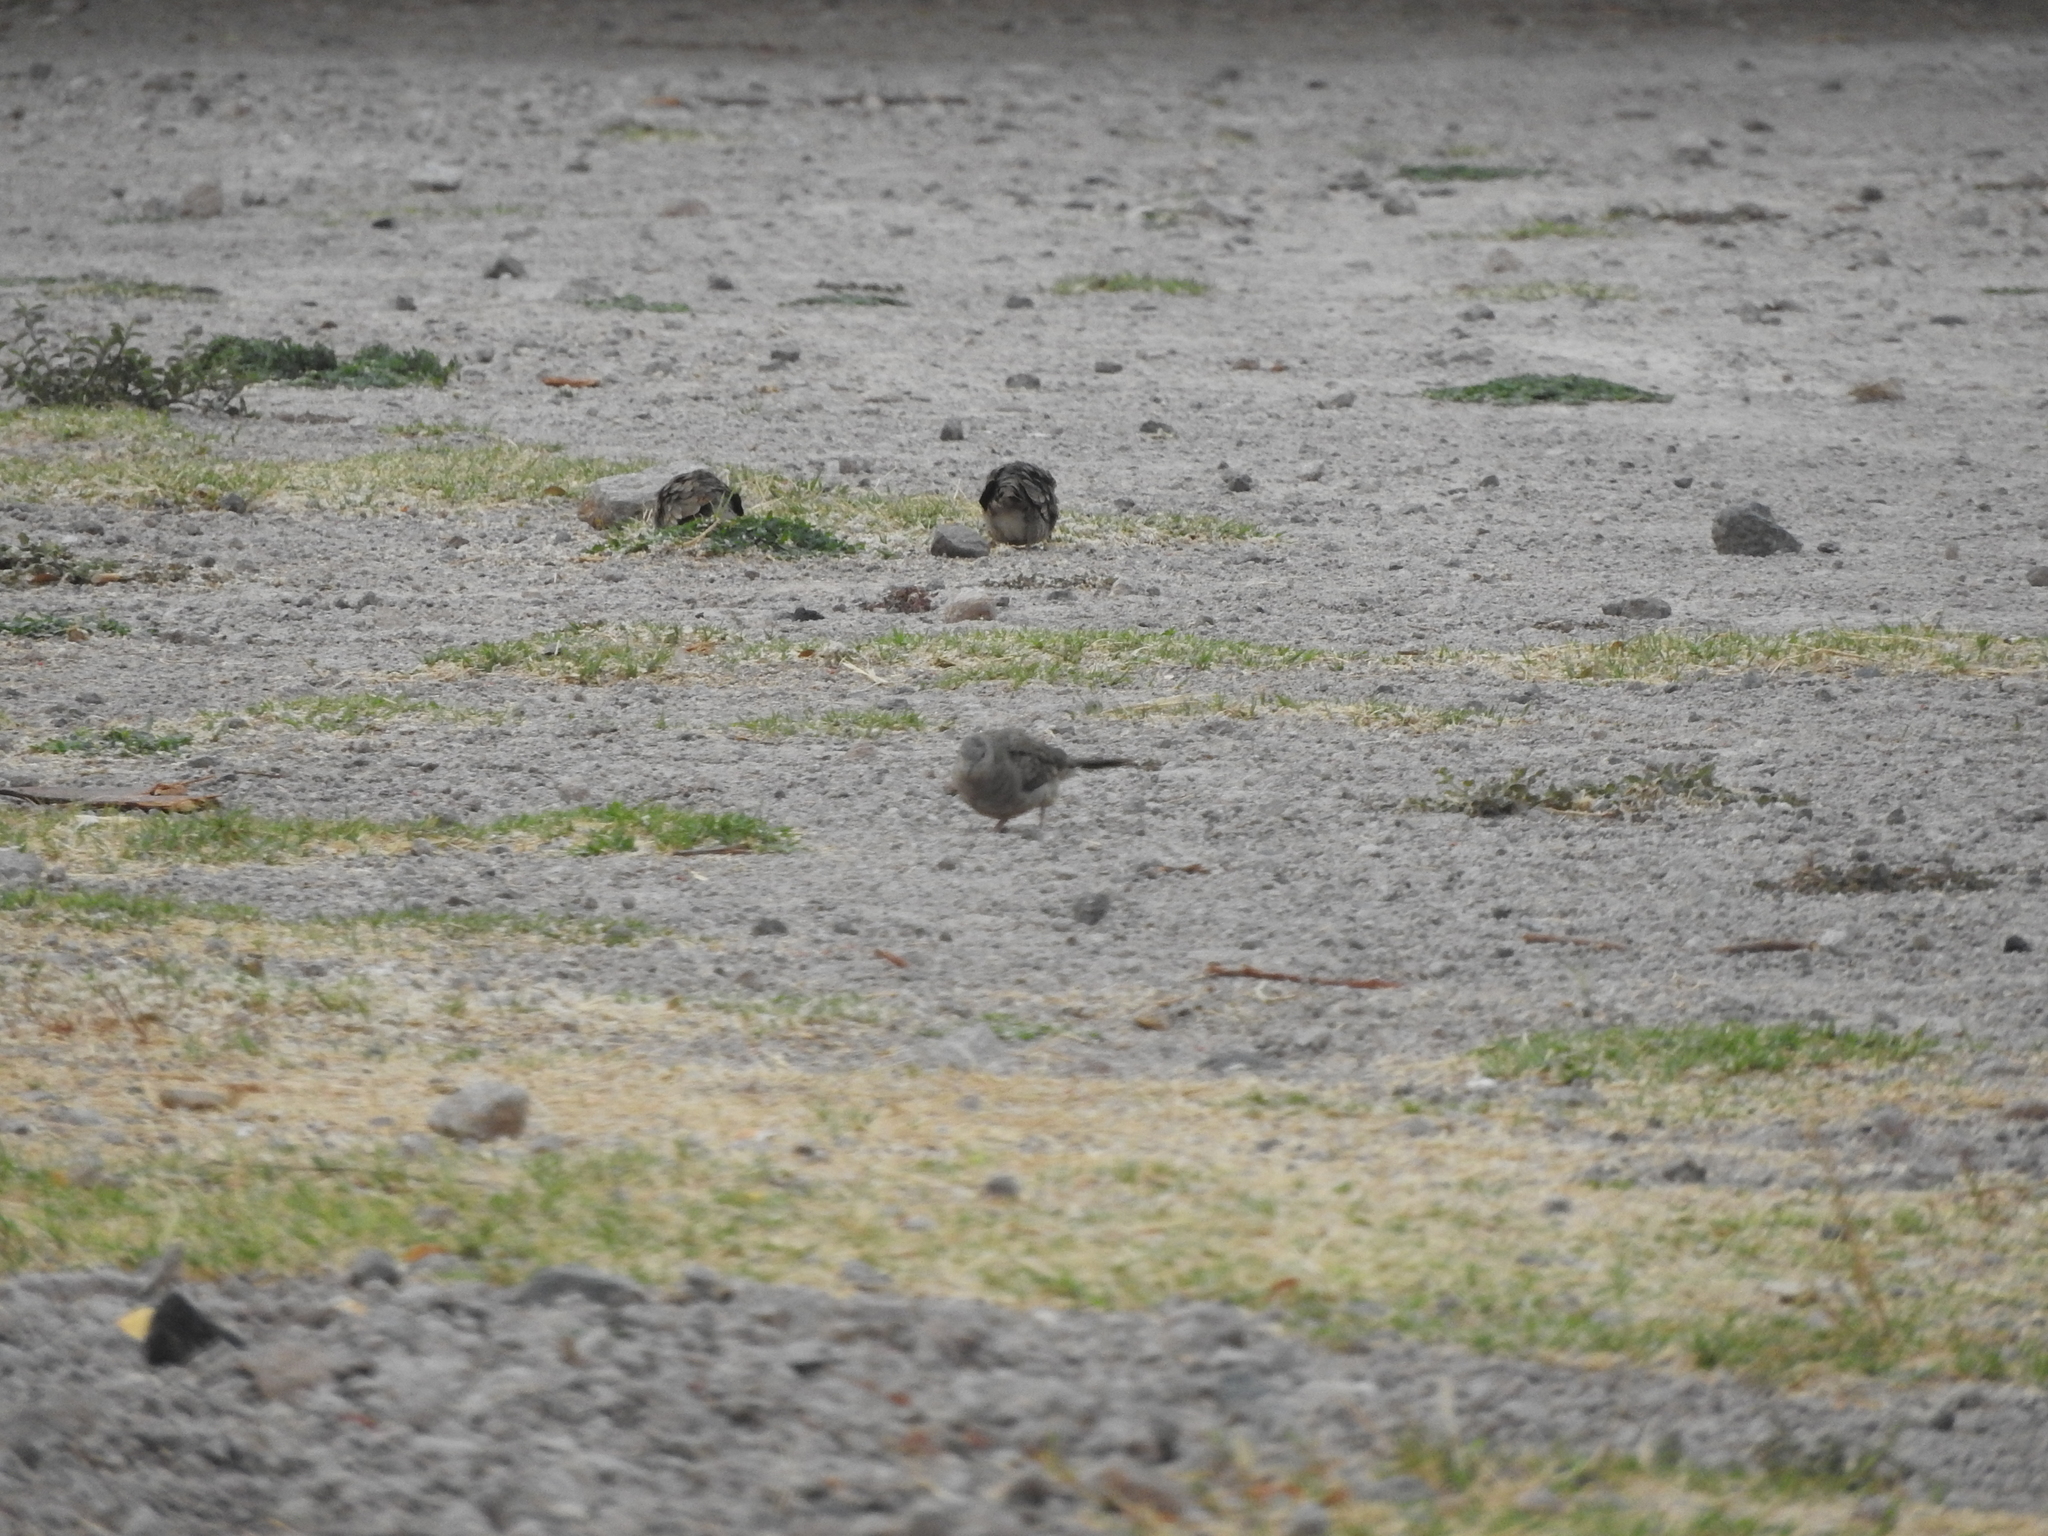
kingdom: Animalia
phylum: Chordata
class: Aves
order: Columbiformes
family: Columbidae
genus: Columbina
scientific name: Columbina inca
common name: Inca dove
